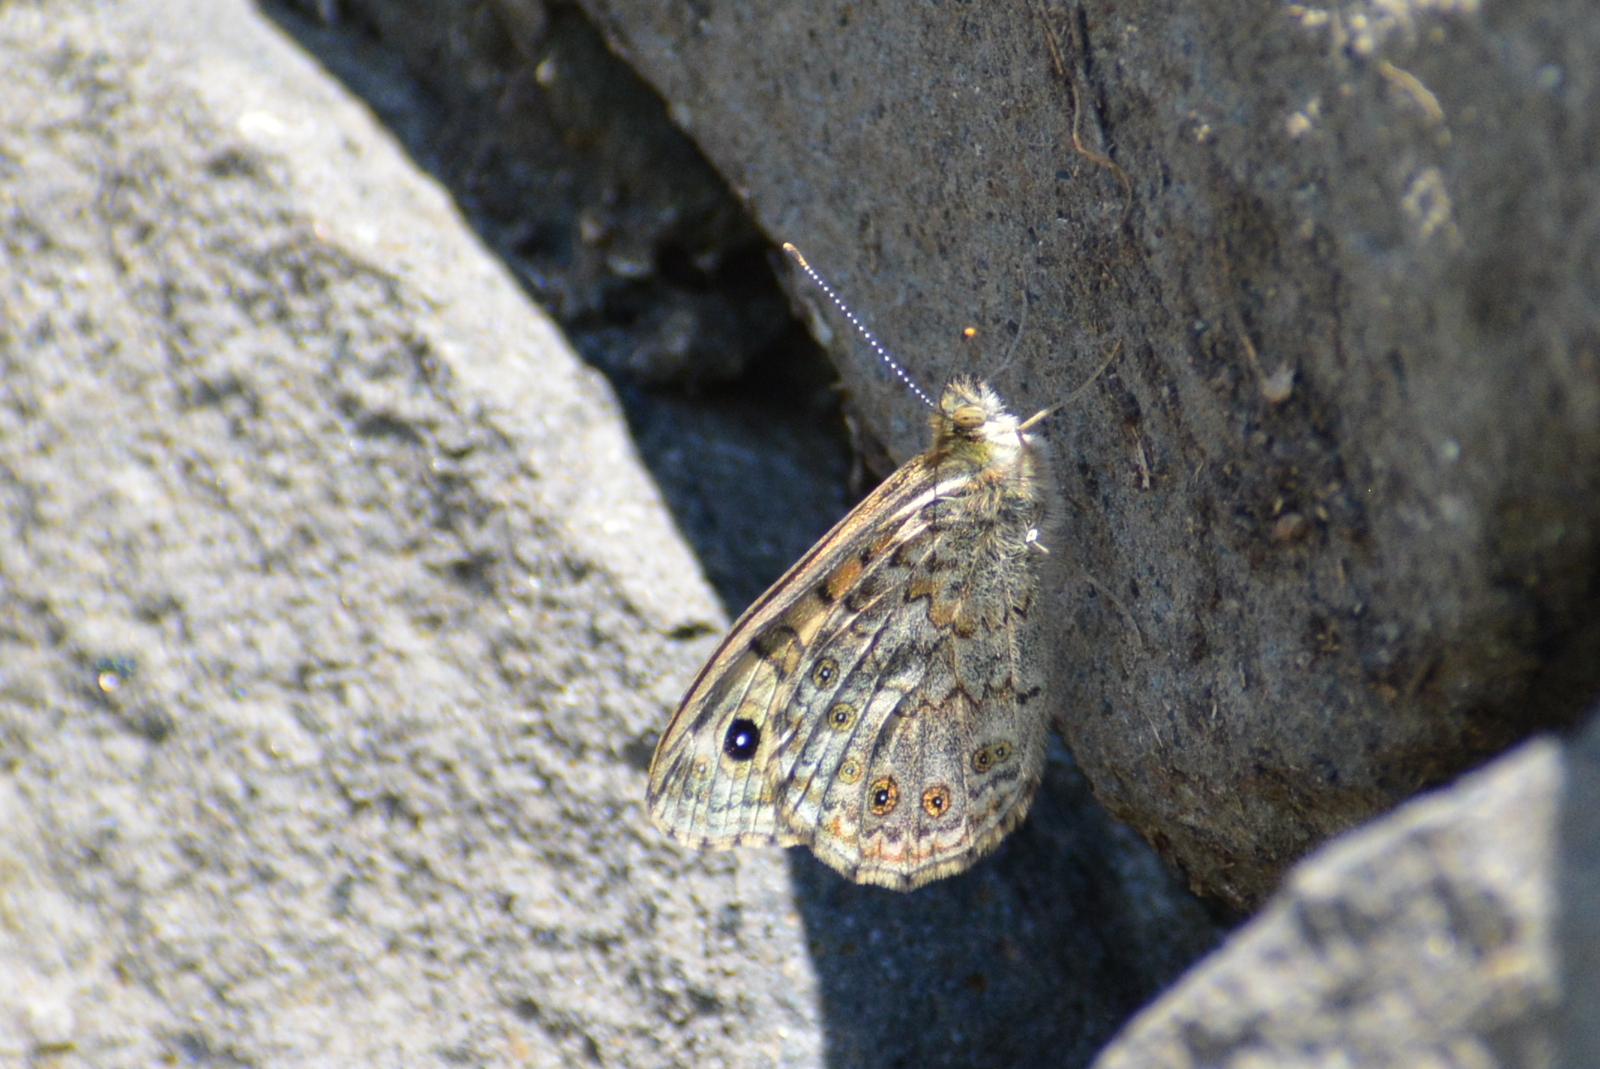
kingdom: Animalia
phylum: Arthropoda
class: Insecta
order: Lepidoptera
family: Nymphalidae
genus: Pararge
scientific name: Pararge Lasiommata megera
